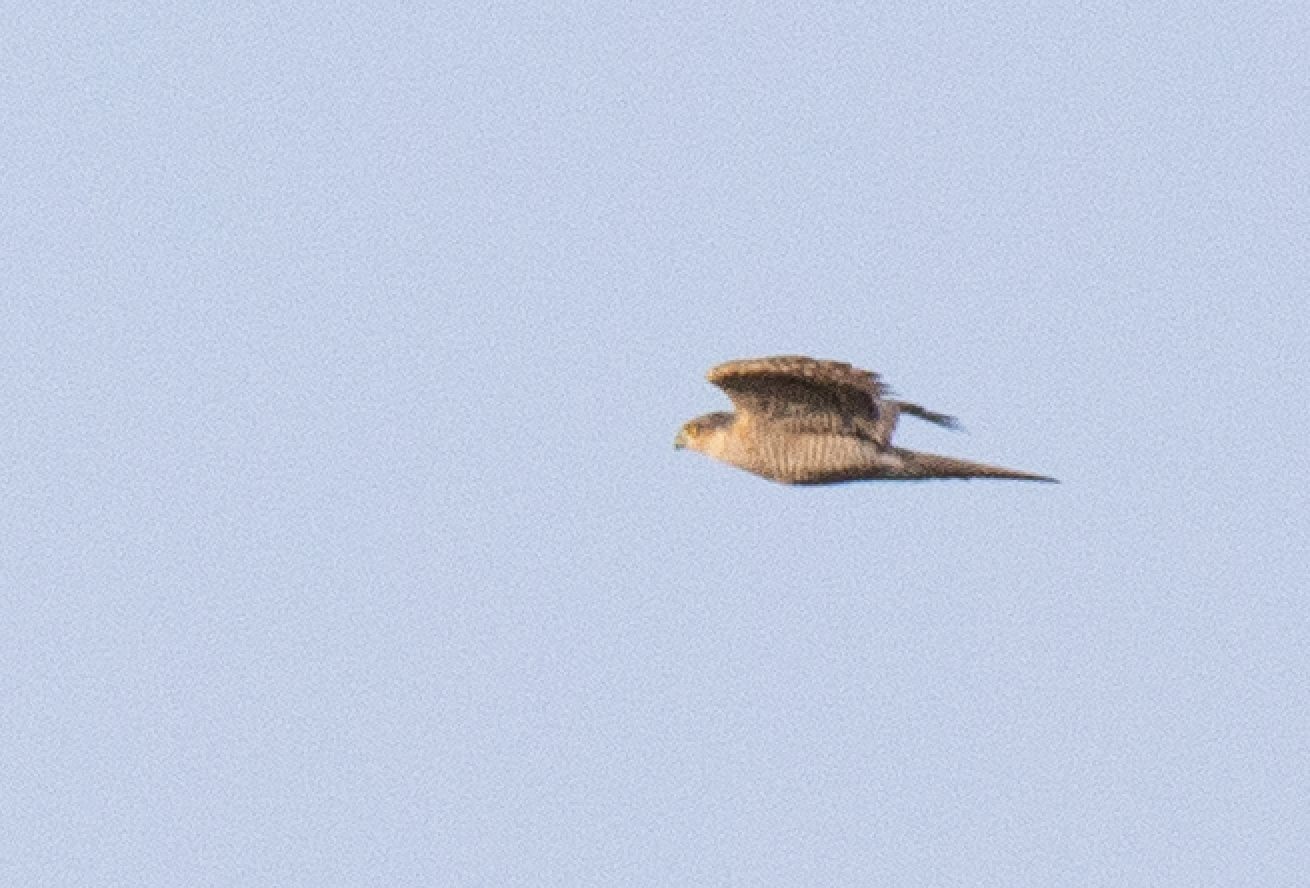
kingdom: Animalia
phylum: Chordata
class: Aves
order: Accipitriformes
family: Accipitridae
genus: Accipiter
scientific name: Accipiter nisus
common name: Eurasian sparrowhawk
